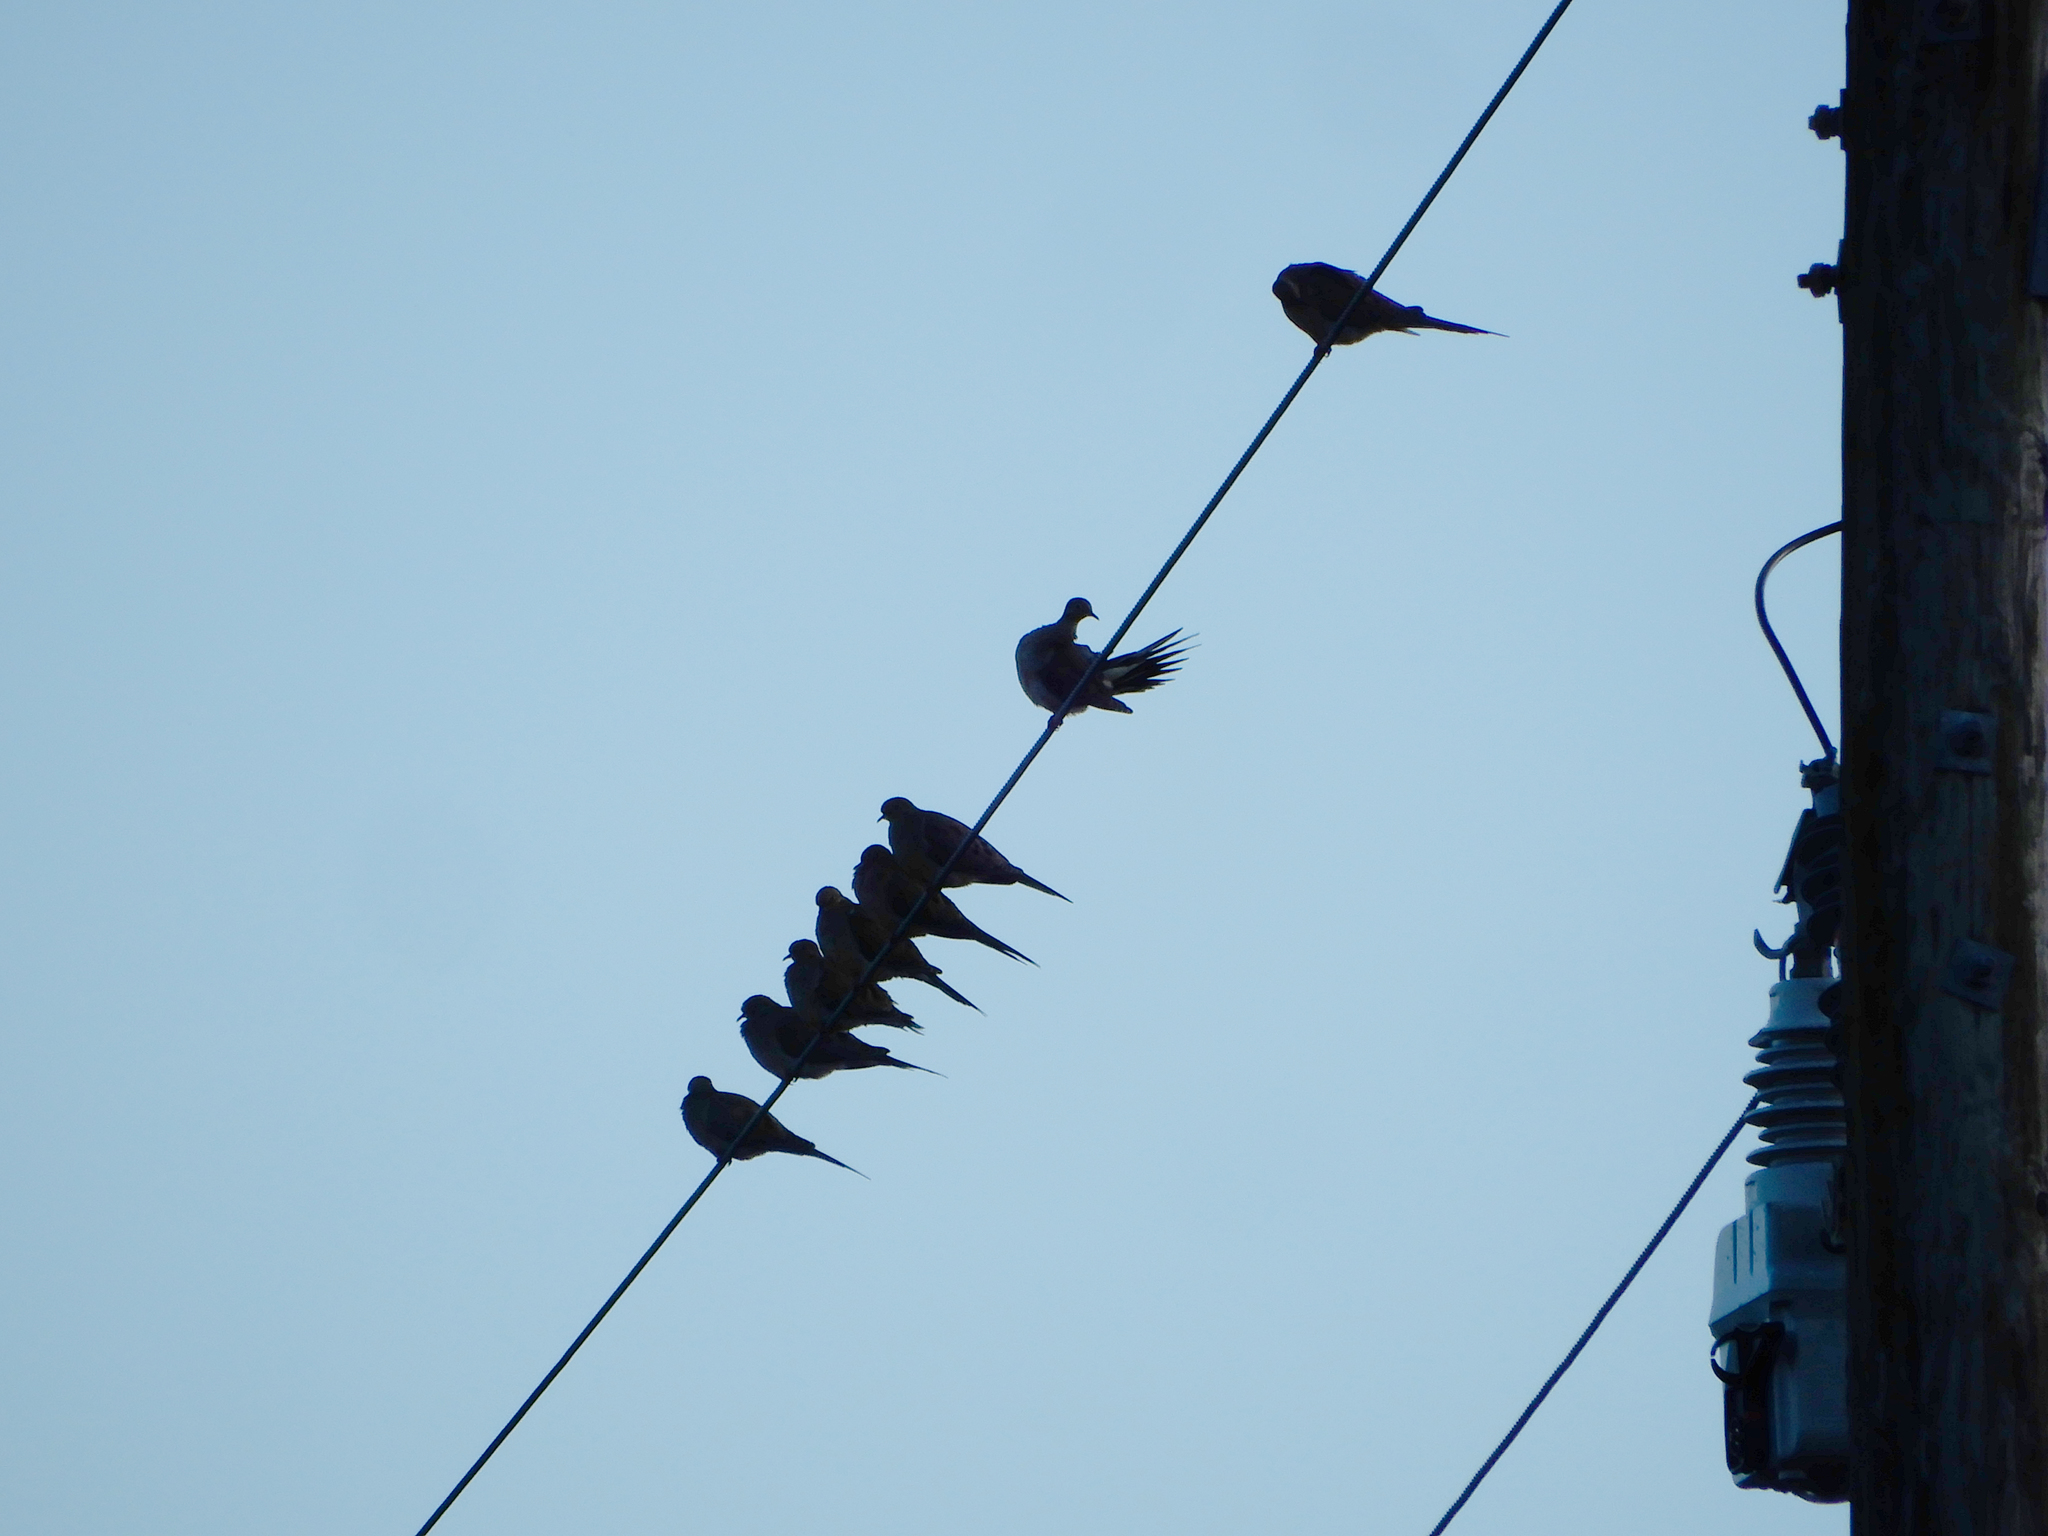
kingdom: Animalia
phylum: Chordata
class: Aves
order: Columbiformes
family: Columbidae
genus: Zenaida
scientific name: Zenaida macroura
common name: Mourning dove
